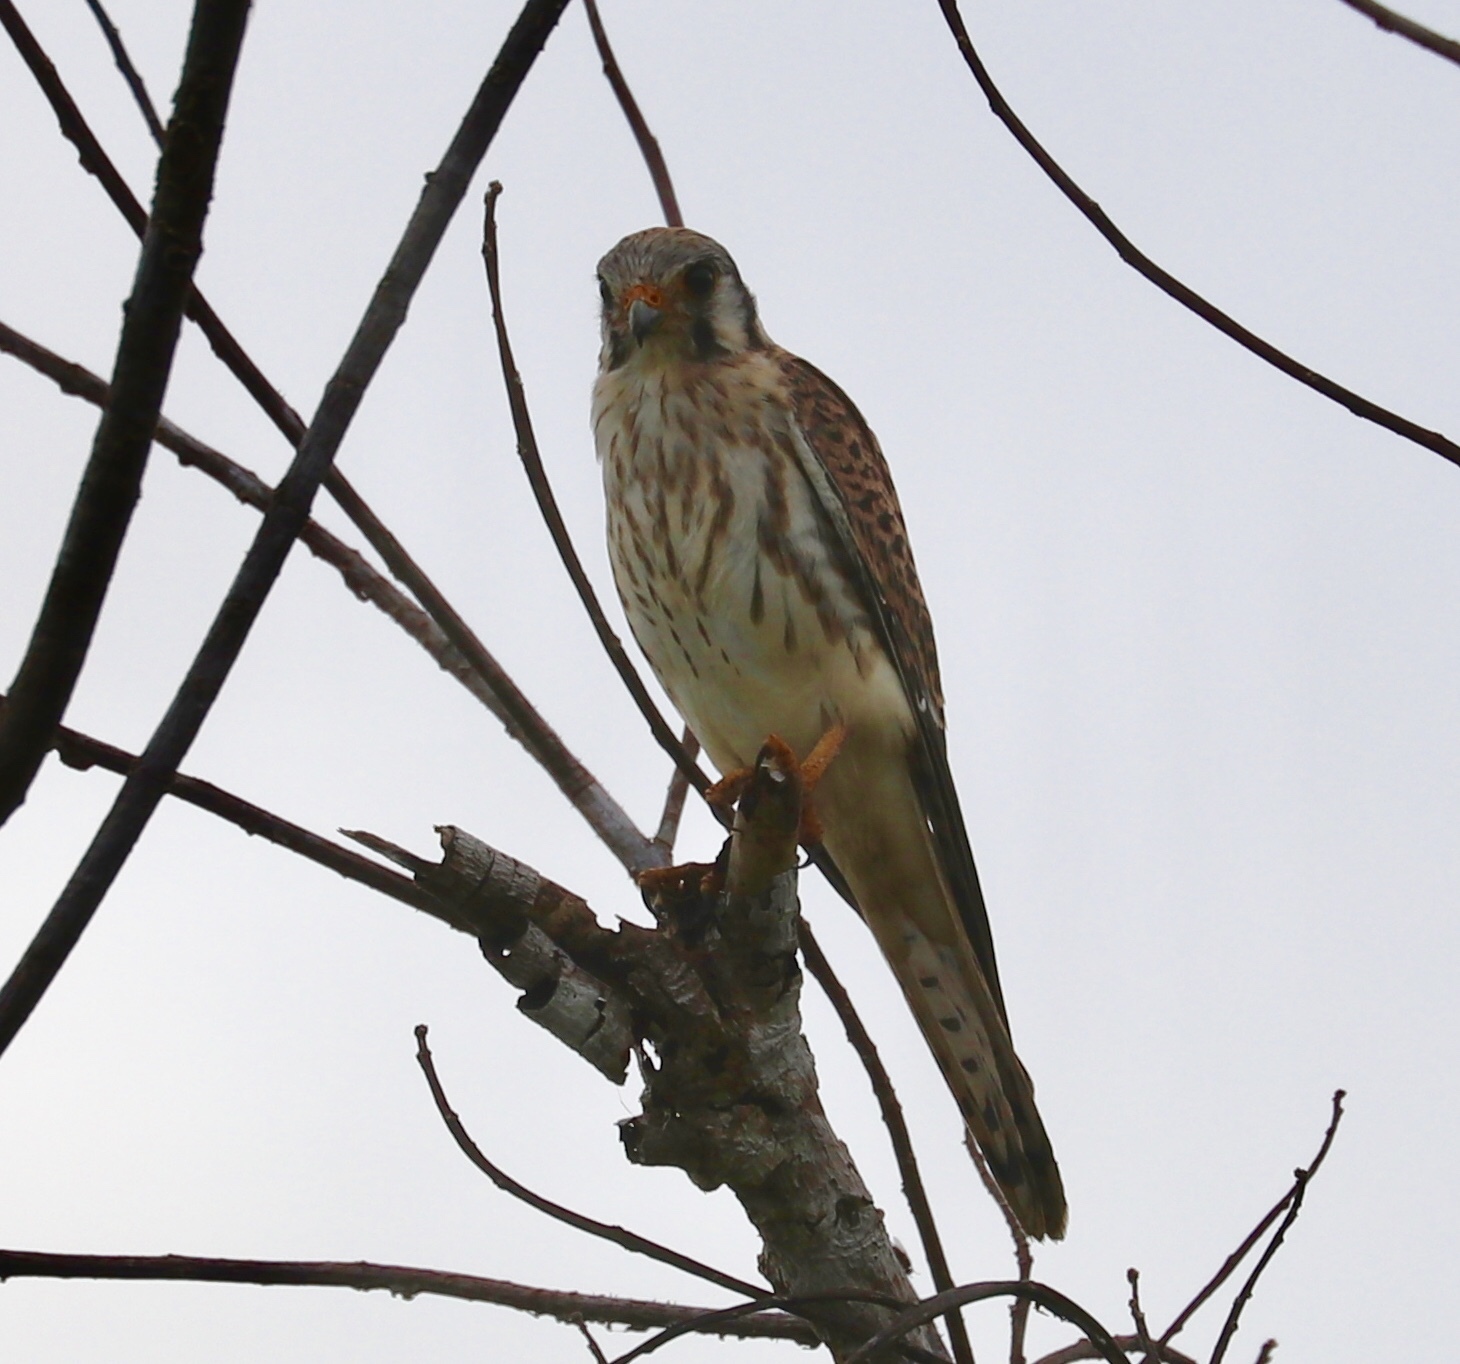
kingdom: Animalia
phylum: Chordata
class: Aves
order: Falconiformes
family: Falconidae
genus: Falco
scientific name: Falco sparverius
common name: American kestrel
